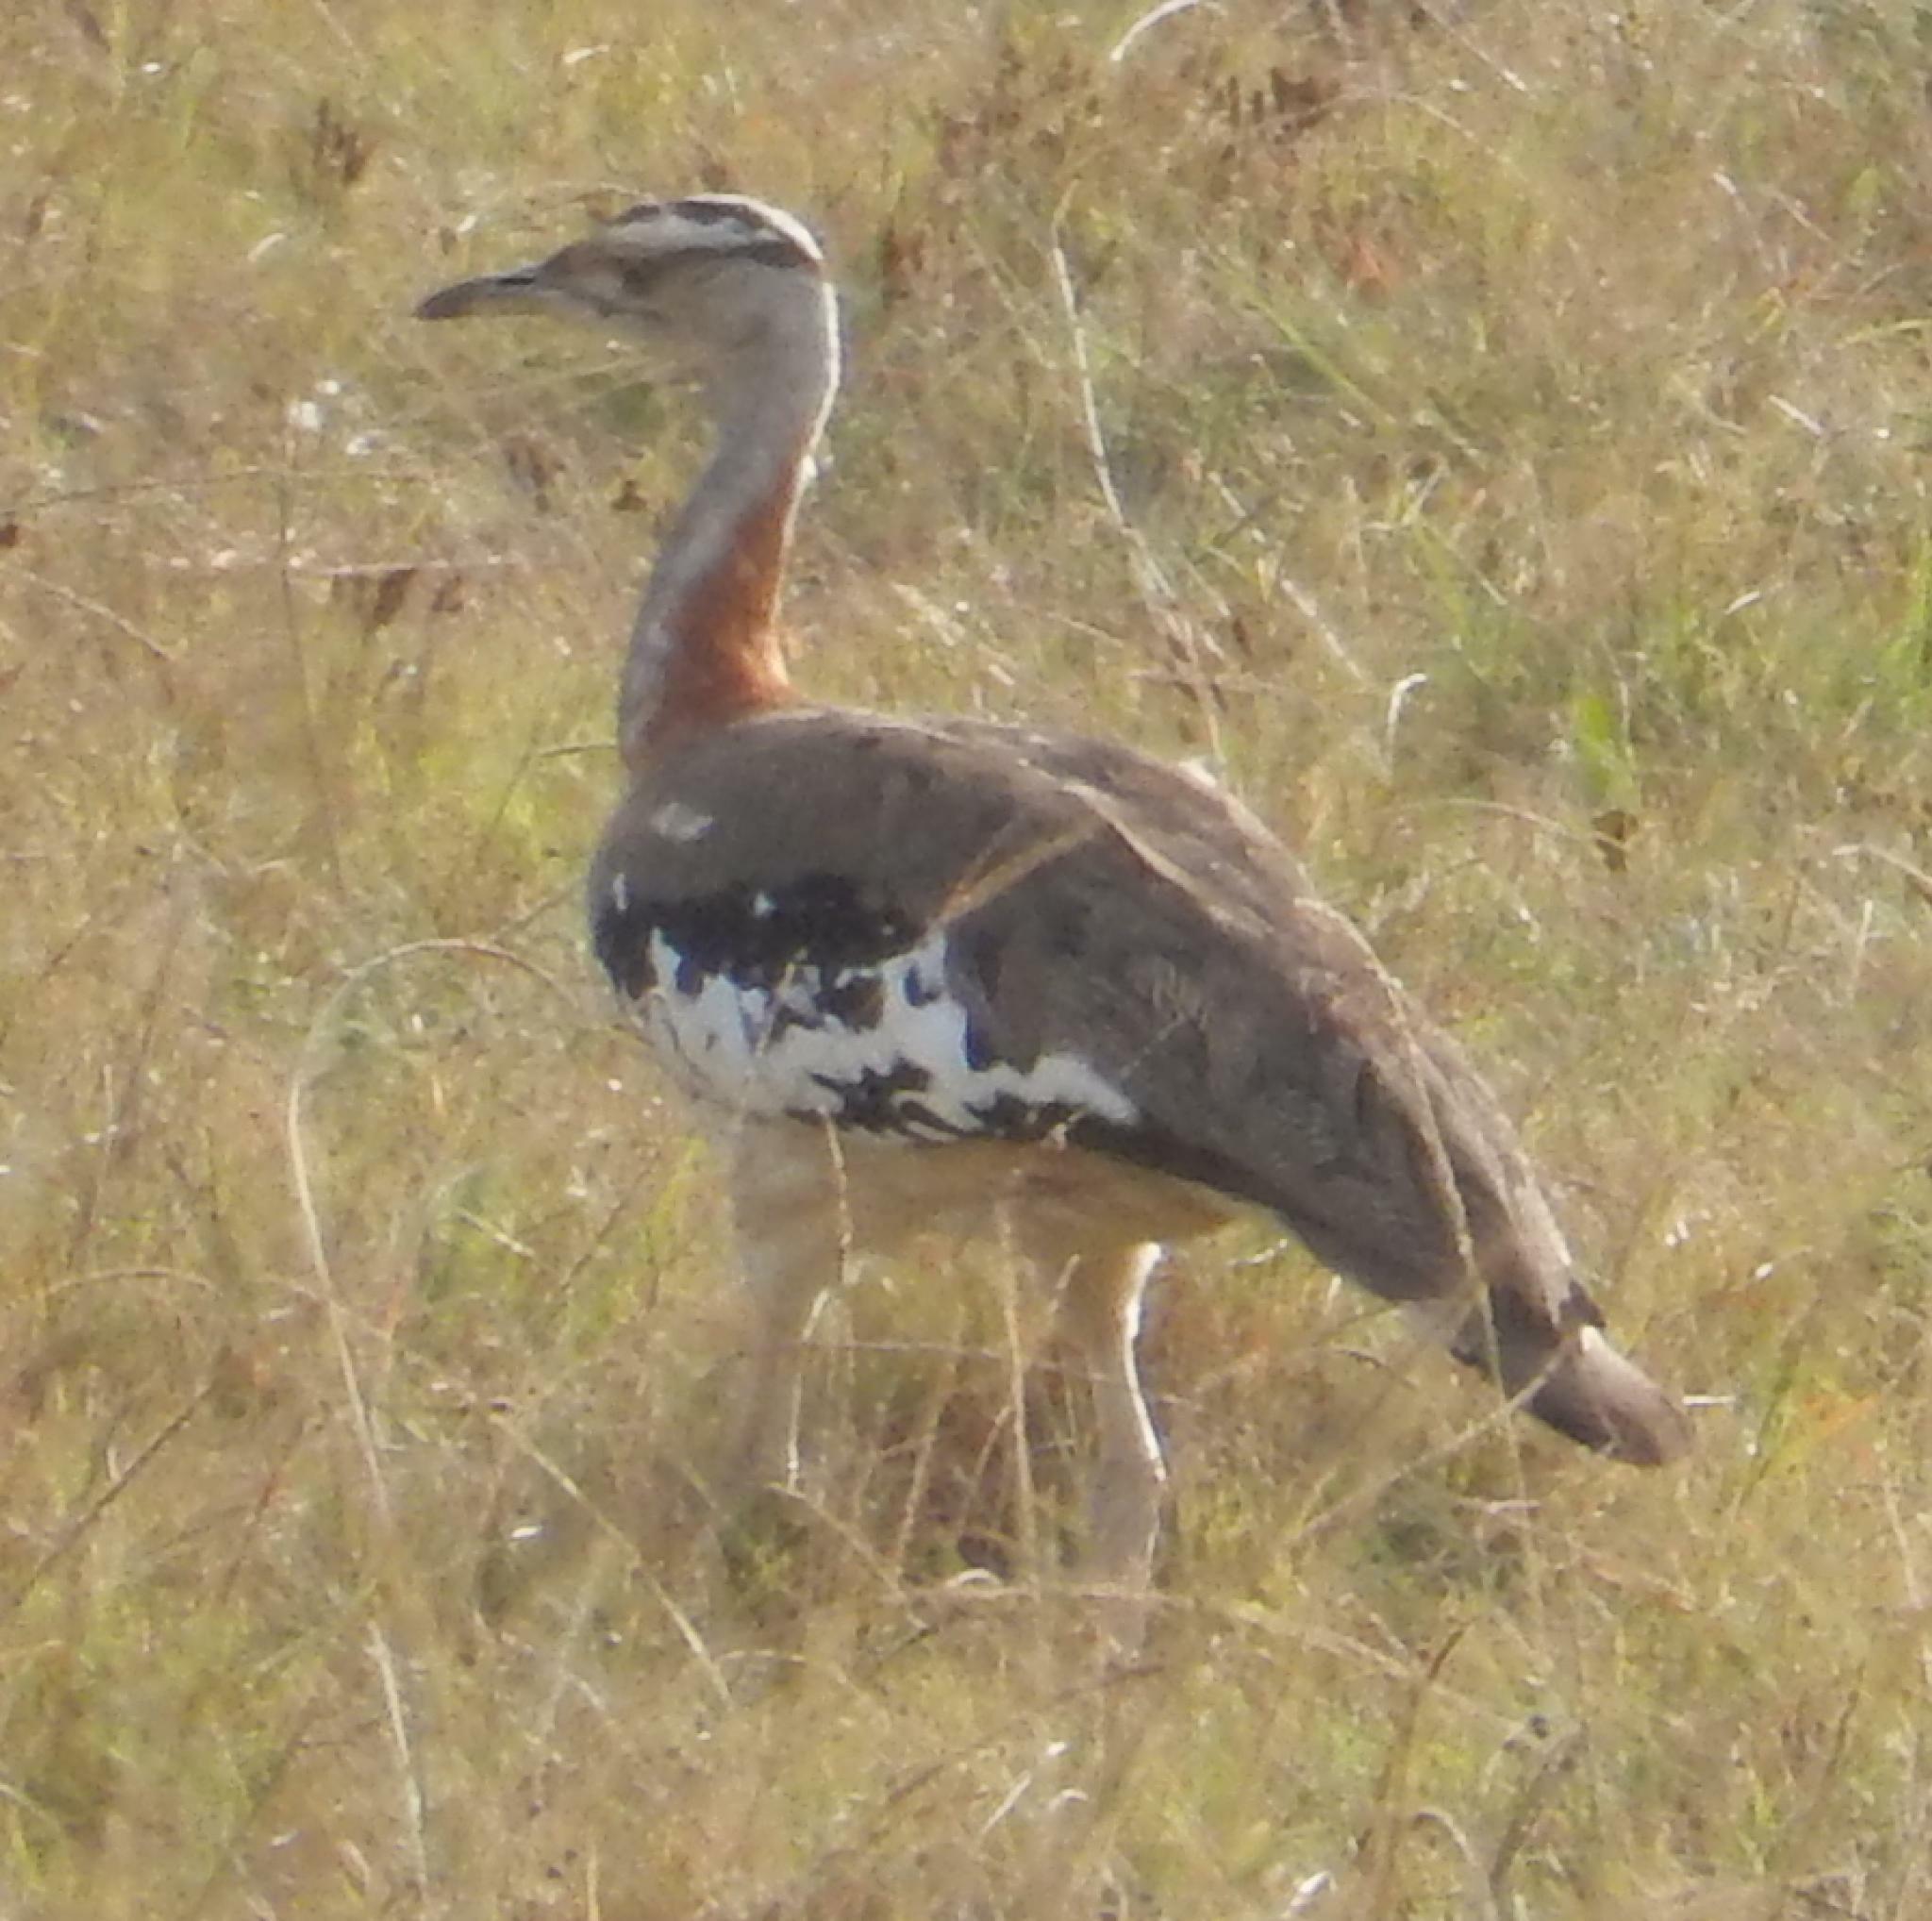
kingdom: Animalia
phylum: Chordata
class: Aves
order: Otidiformes
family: Otididae
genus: Neotis
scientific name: Neotis denhami
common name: Denham's bustard
